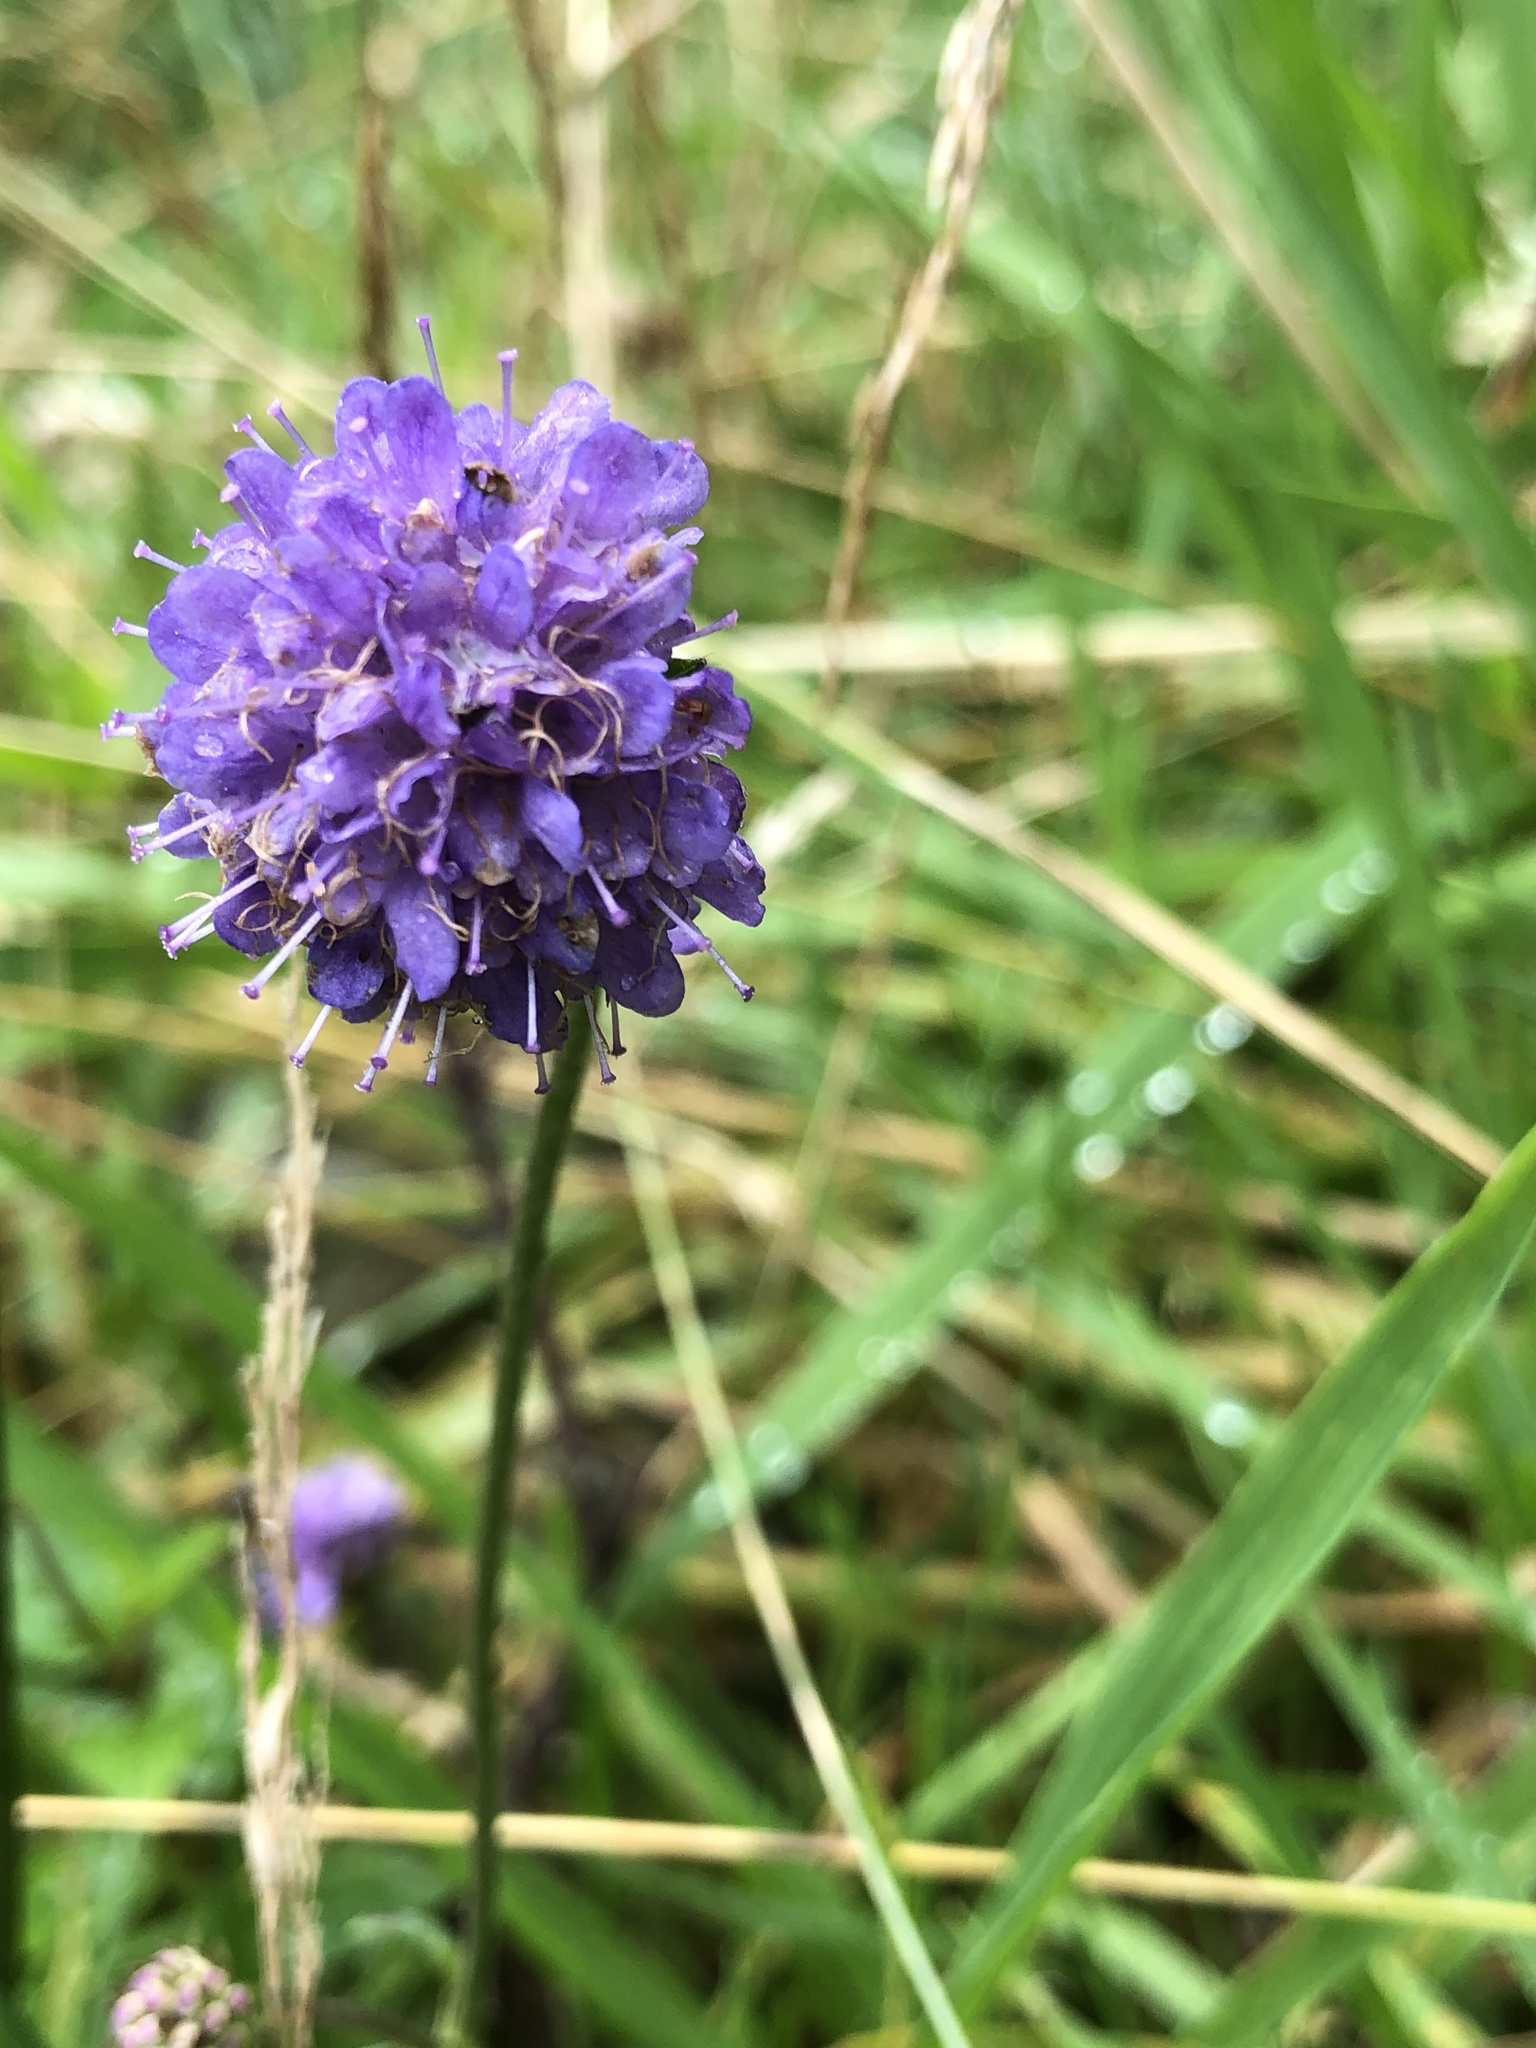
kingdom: Plantae
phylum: Tracheophyta
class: Magnoliopsida
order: Dipsacales
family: Caprifoliaceae
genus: Succisa
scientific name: Succisa pratensis
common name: Devil's-bit
